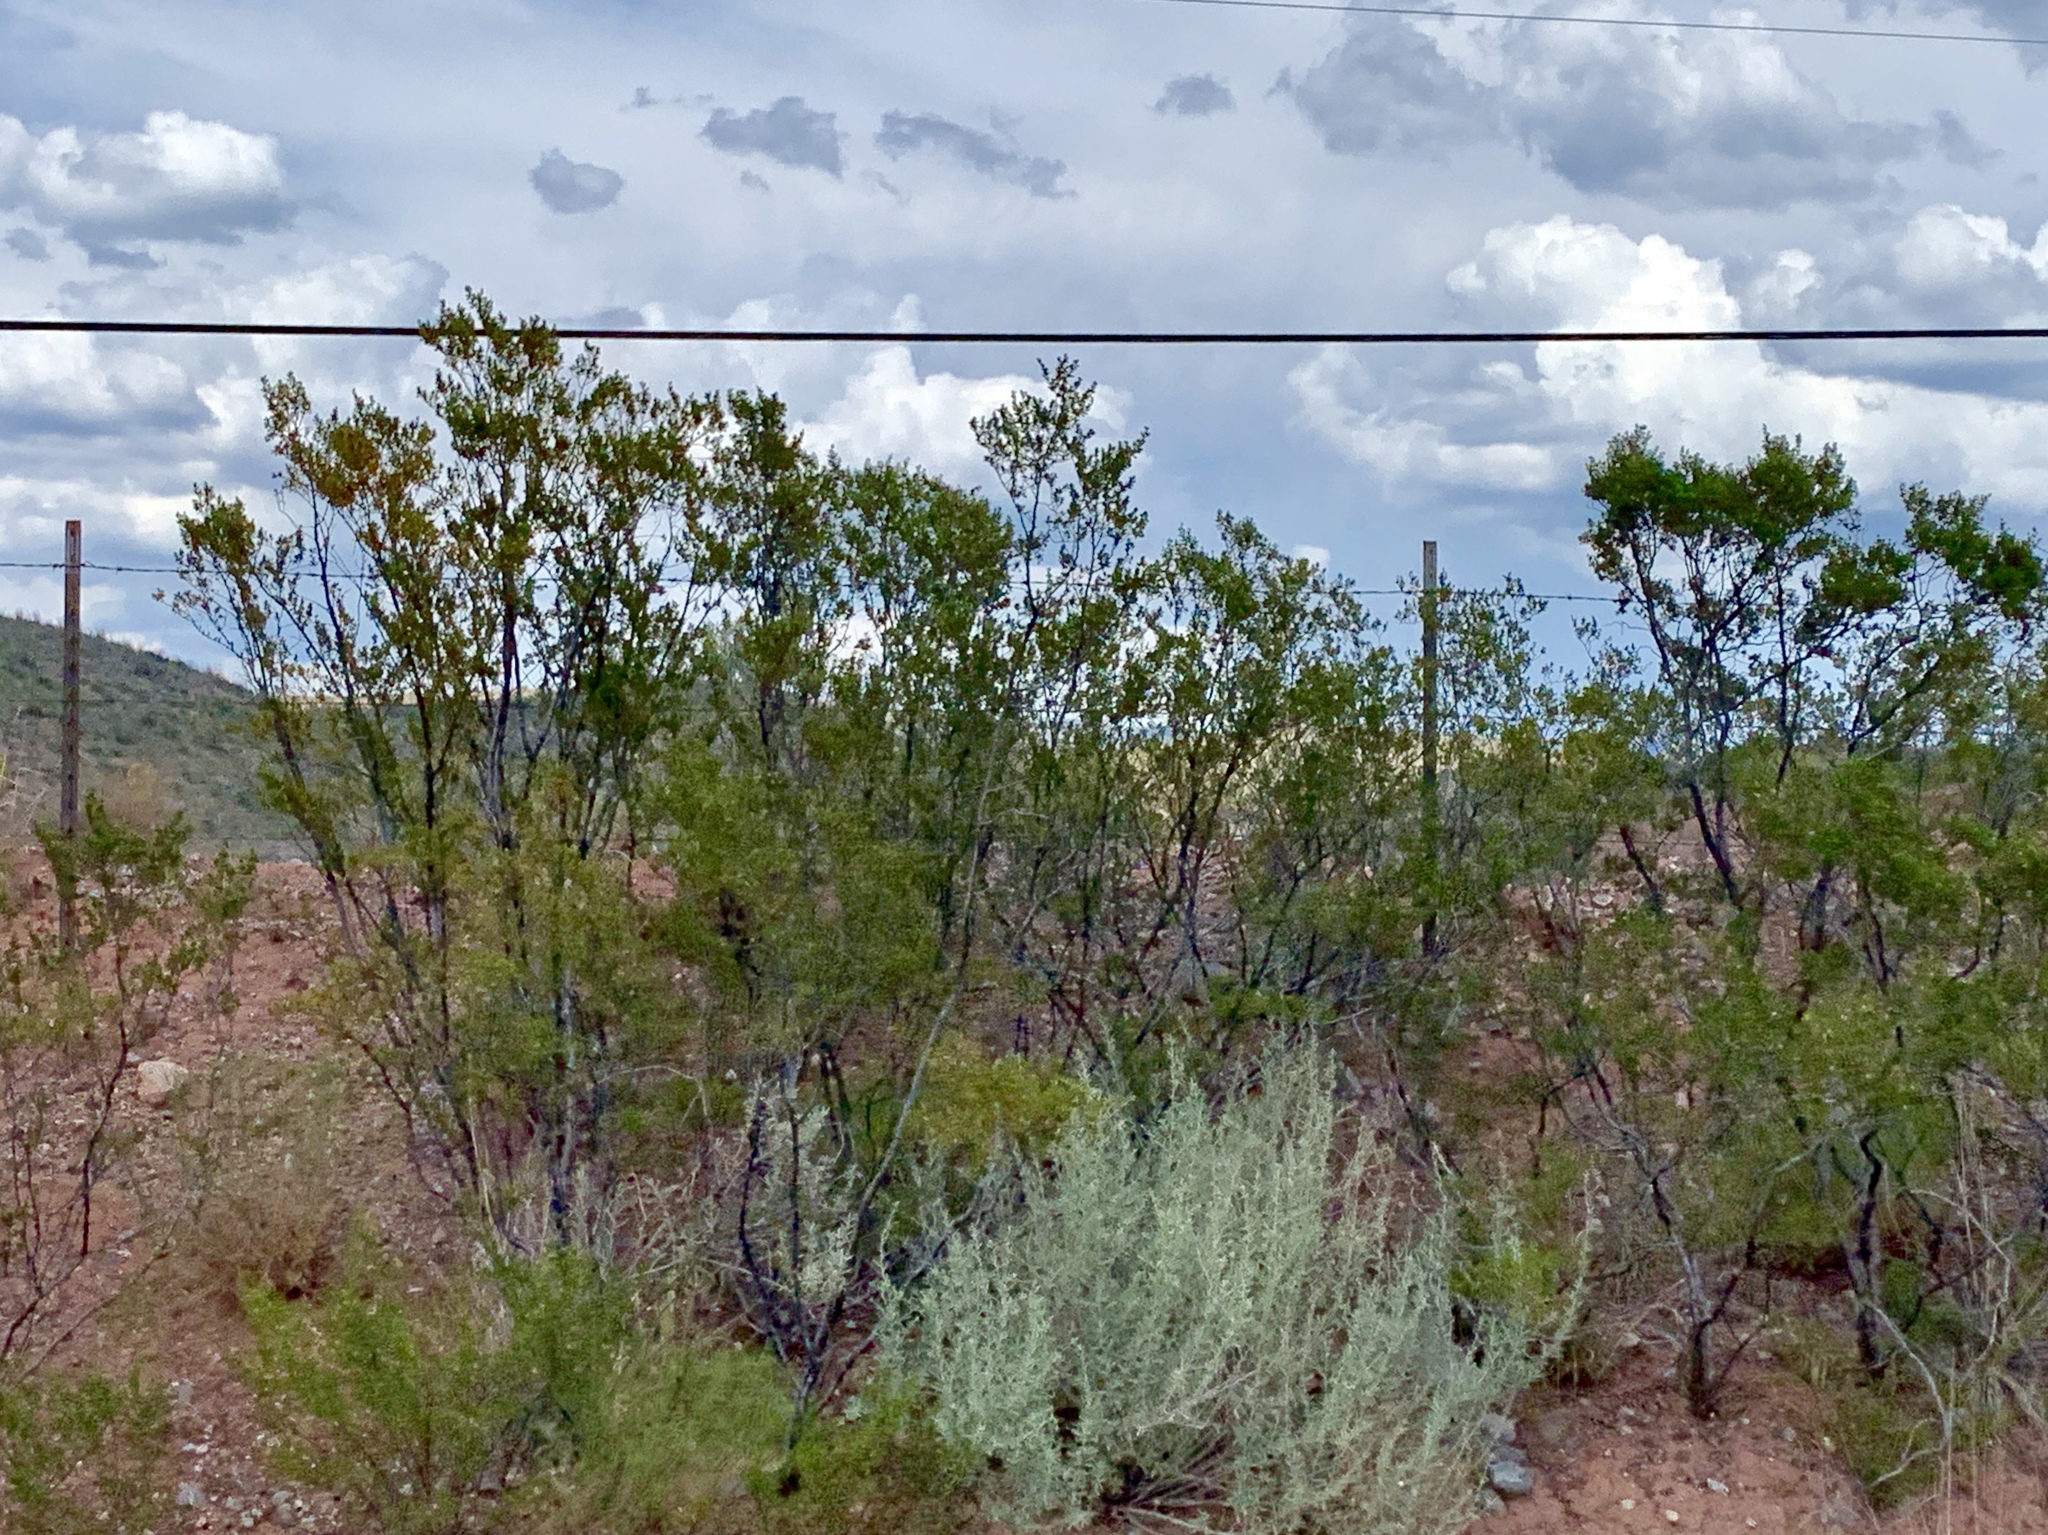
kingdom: Plantae
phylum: Tracheophyta
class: Magnoliopsida
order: Zygophyllales
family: Zygophyllaceae
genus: Larrea
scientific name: Larrea tridentata
